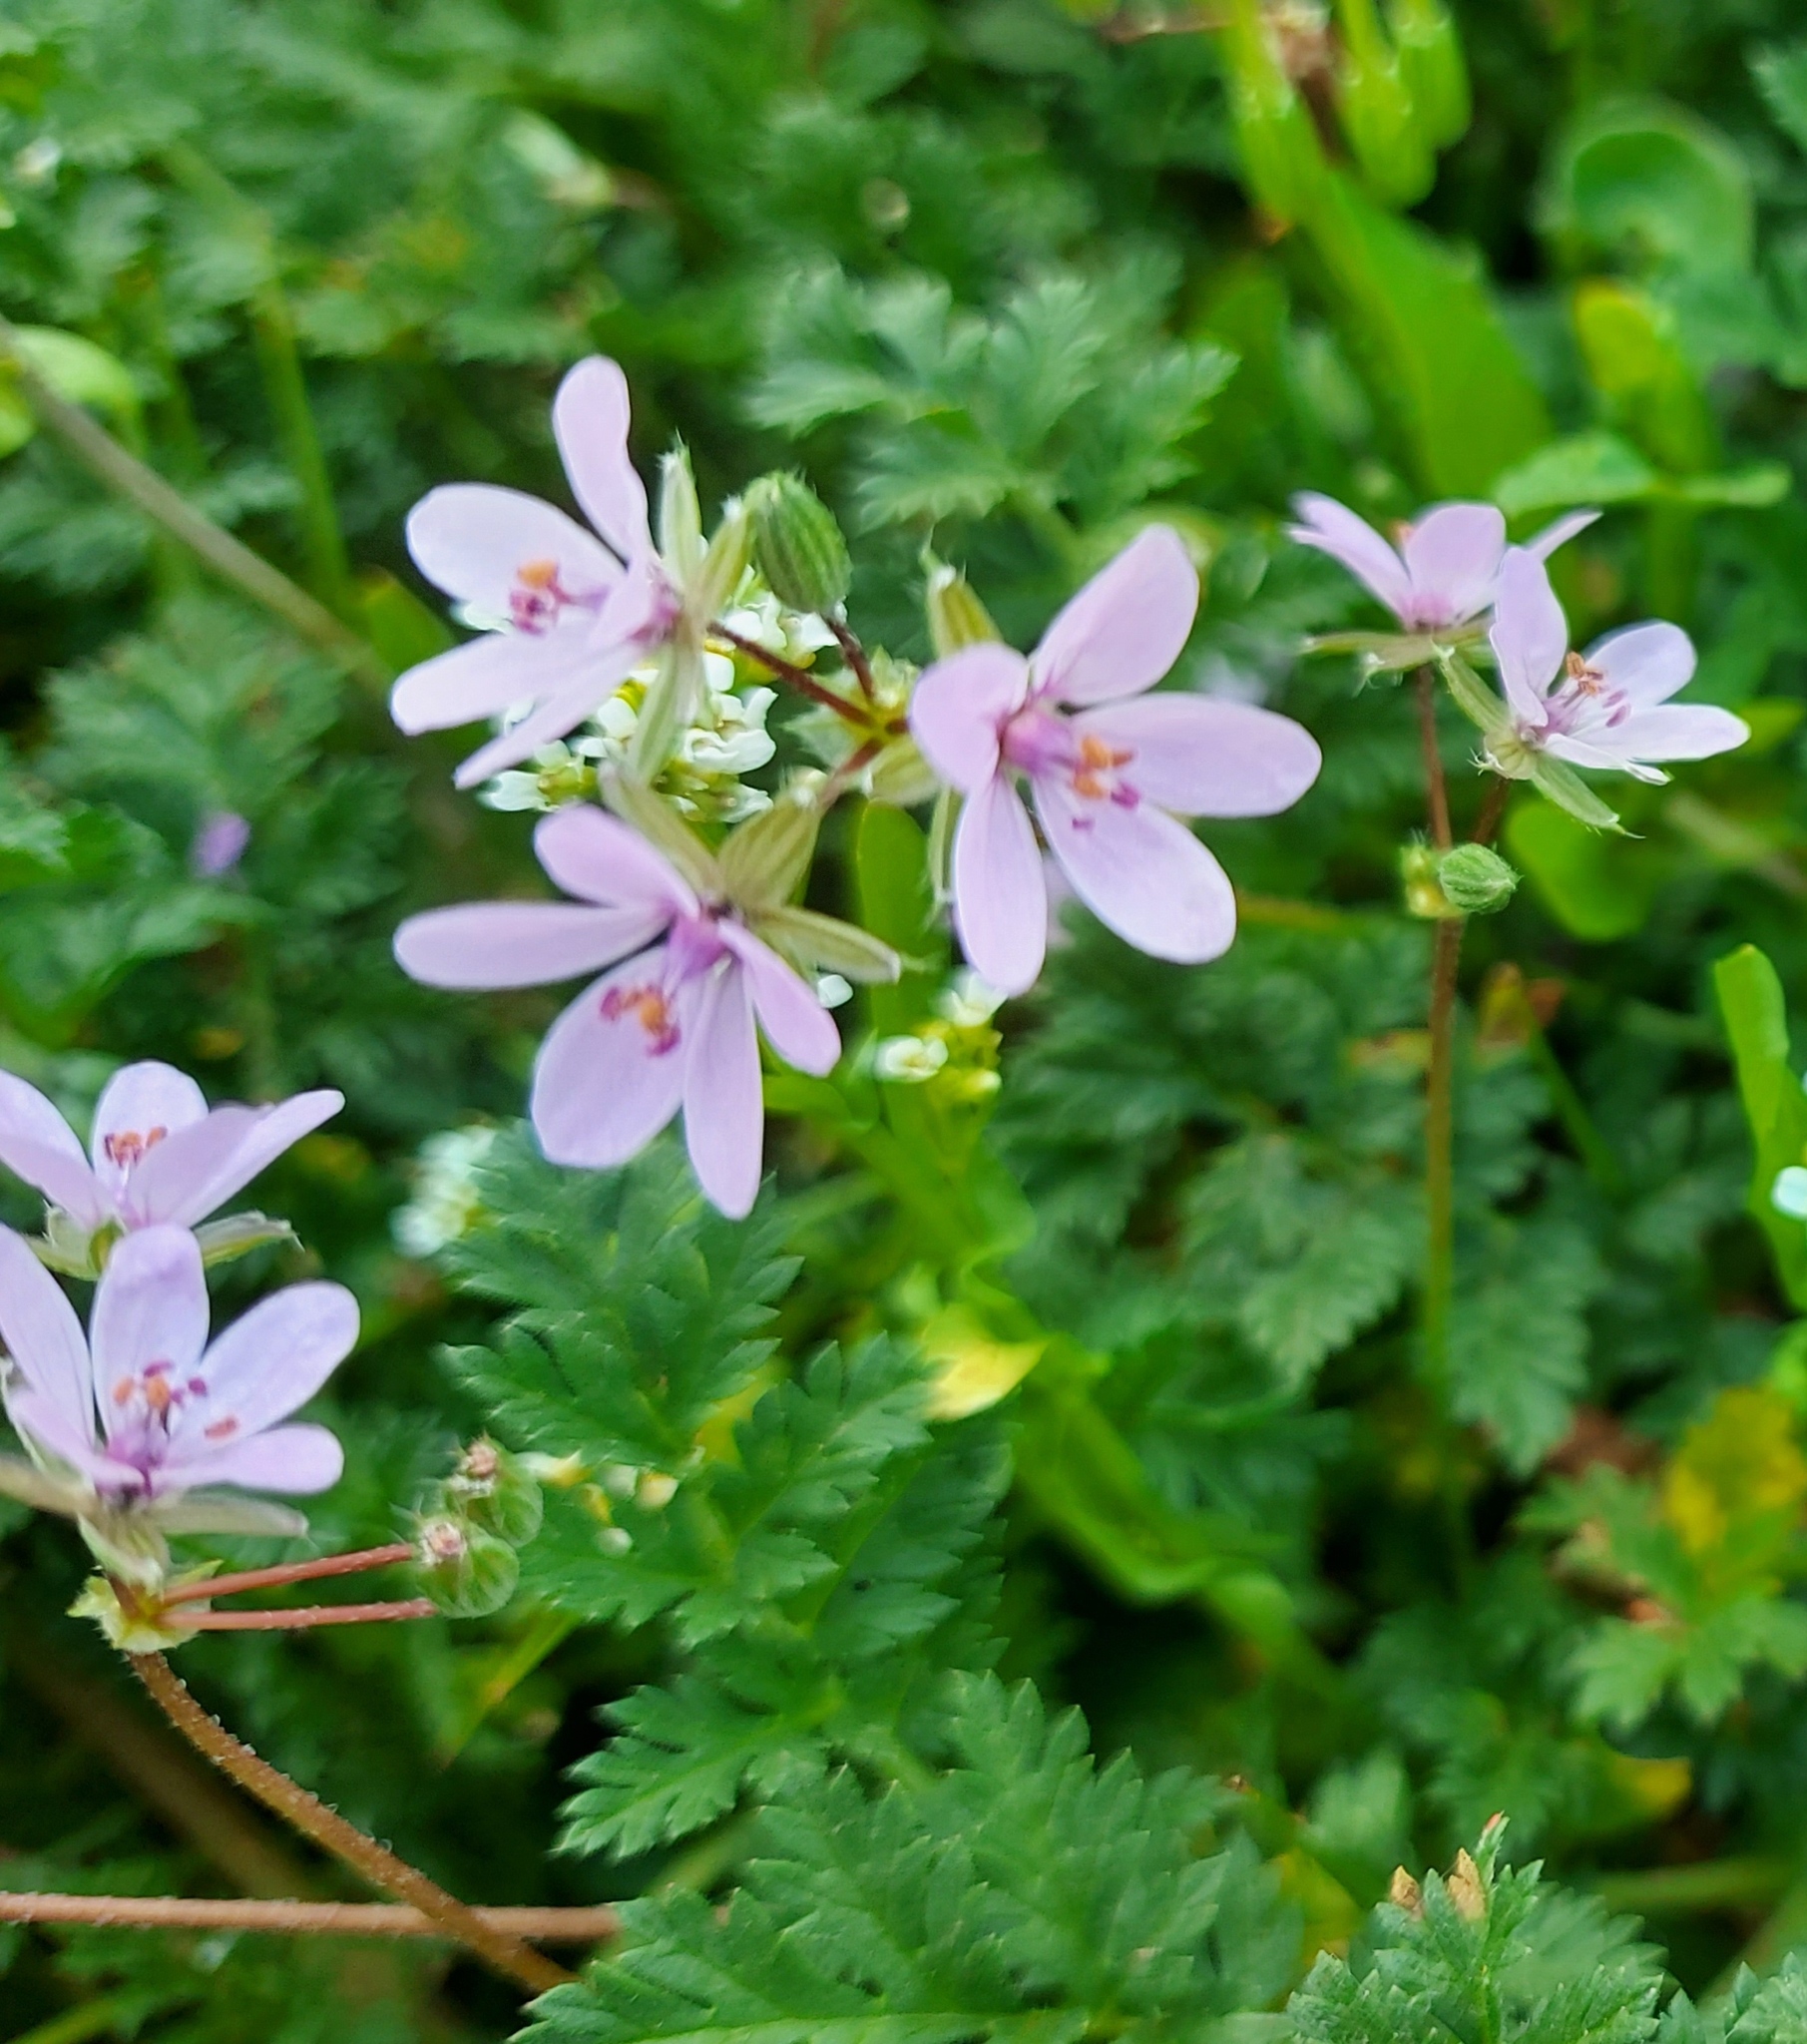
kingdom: Plantae
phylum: Tracheophyta
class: Magnoliopsida
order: Geraniales
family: Geraniaceae
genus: Erodium
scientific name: Erodium cicutarium
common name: Common stork's-bill
